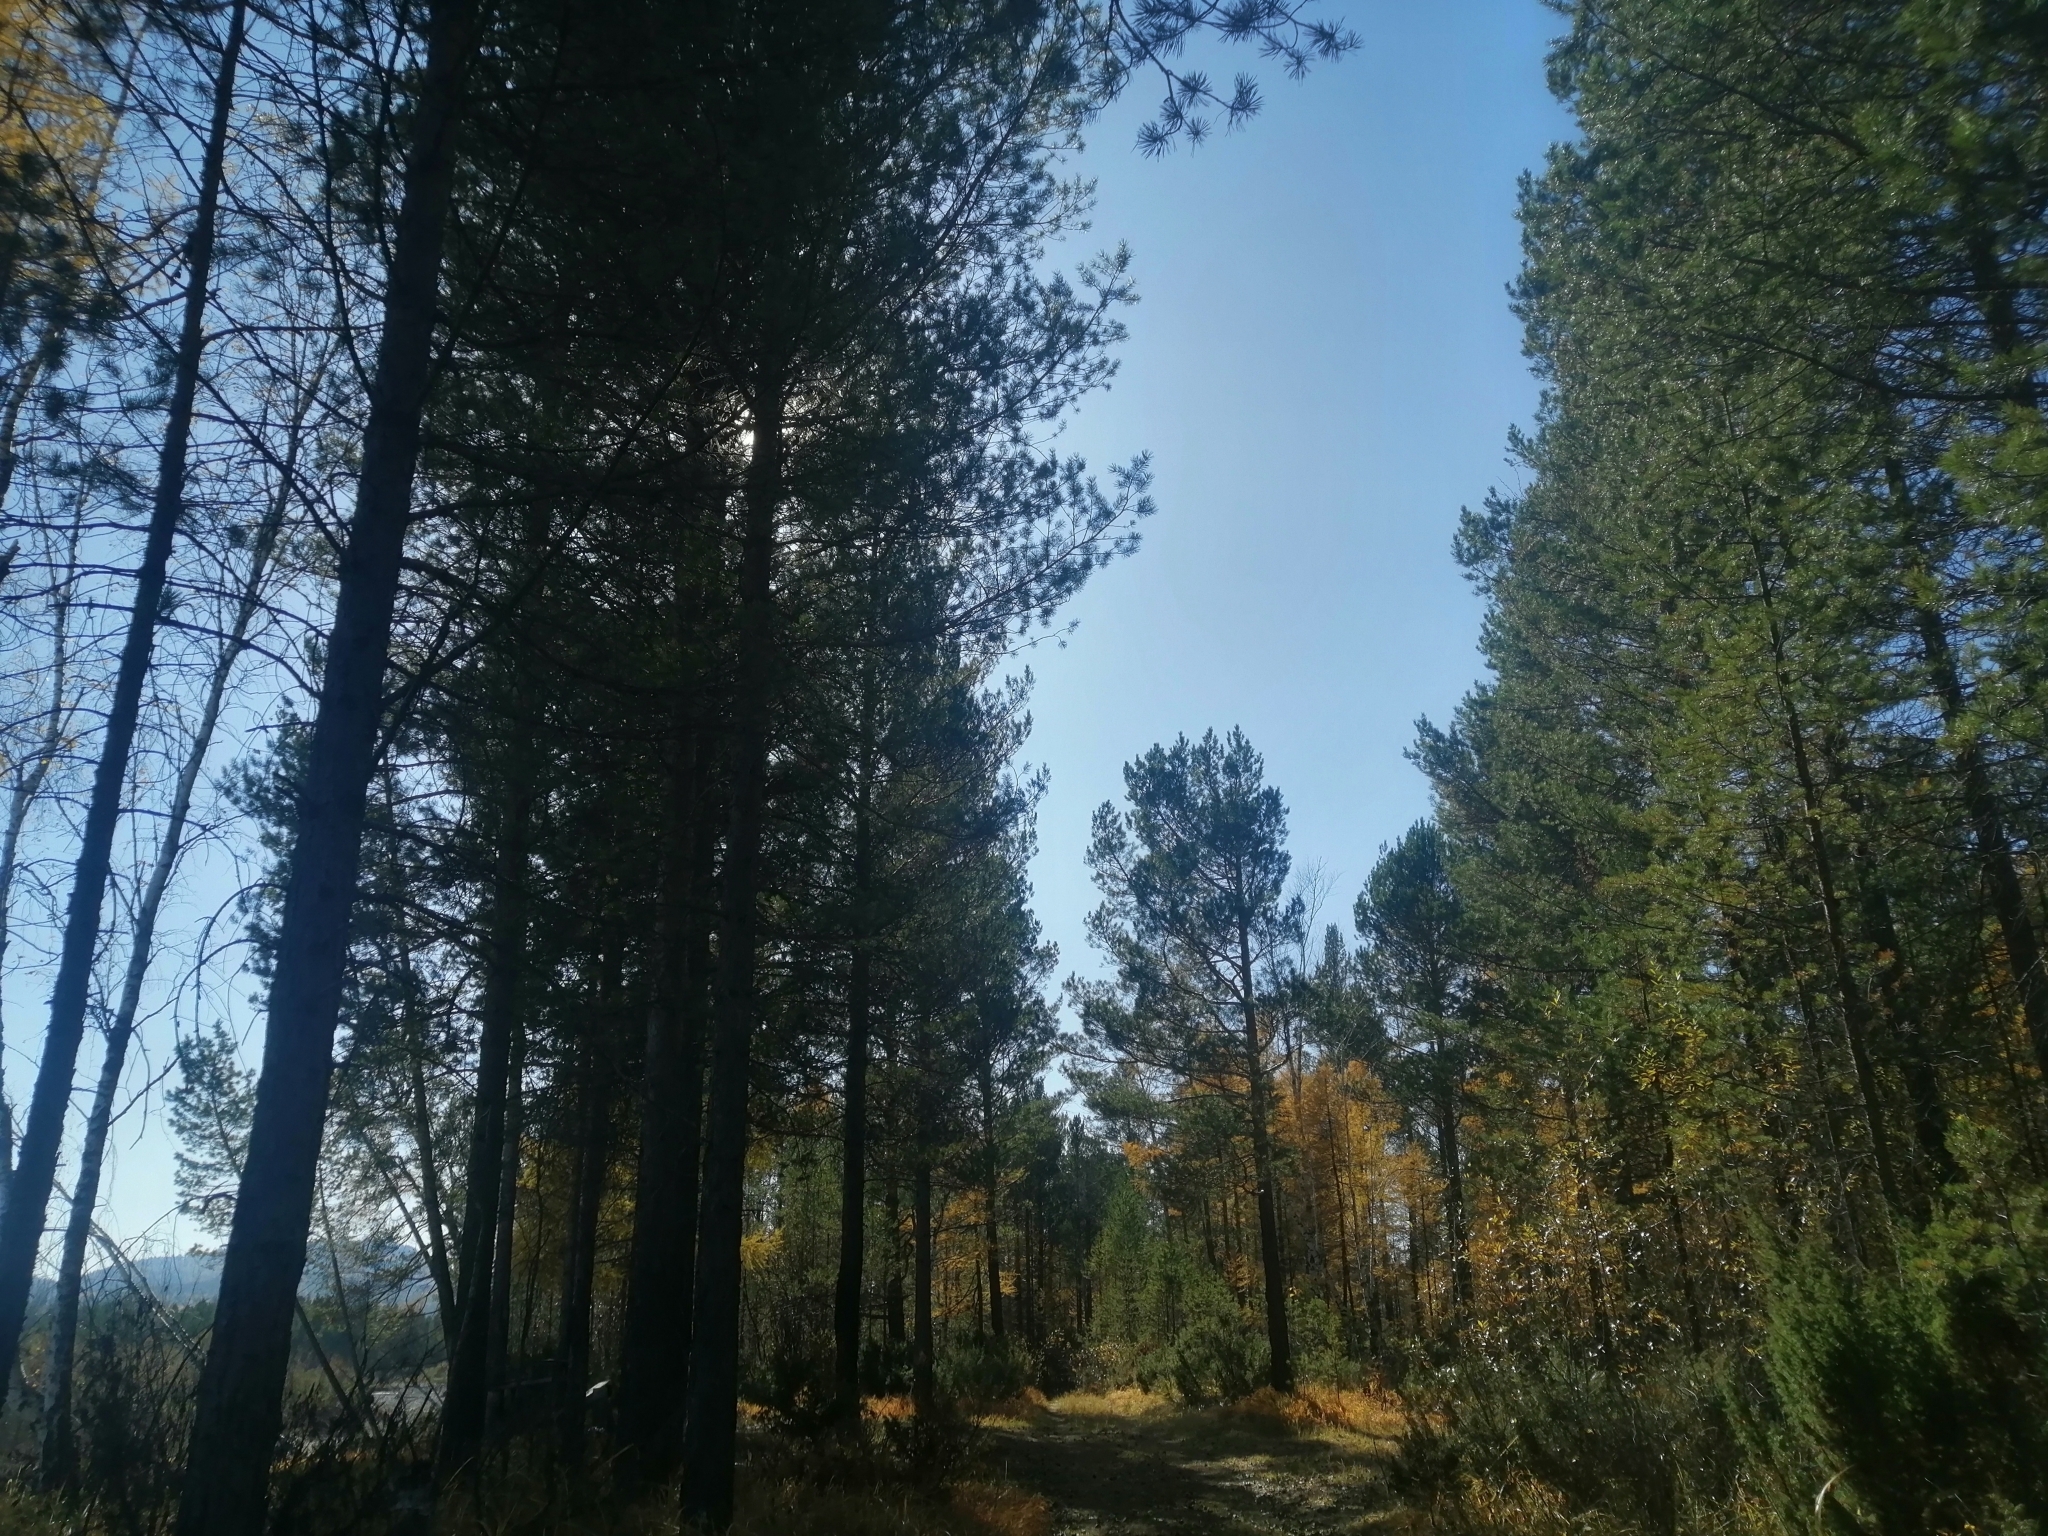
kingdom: Plantae
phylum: Tracheophyta
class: Pinopsida
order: Pinales
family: Pinaceae
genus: Pinus
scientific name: Pinus sylvestris
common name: Scots pine
